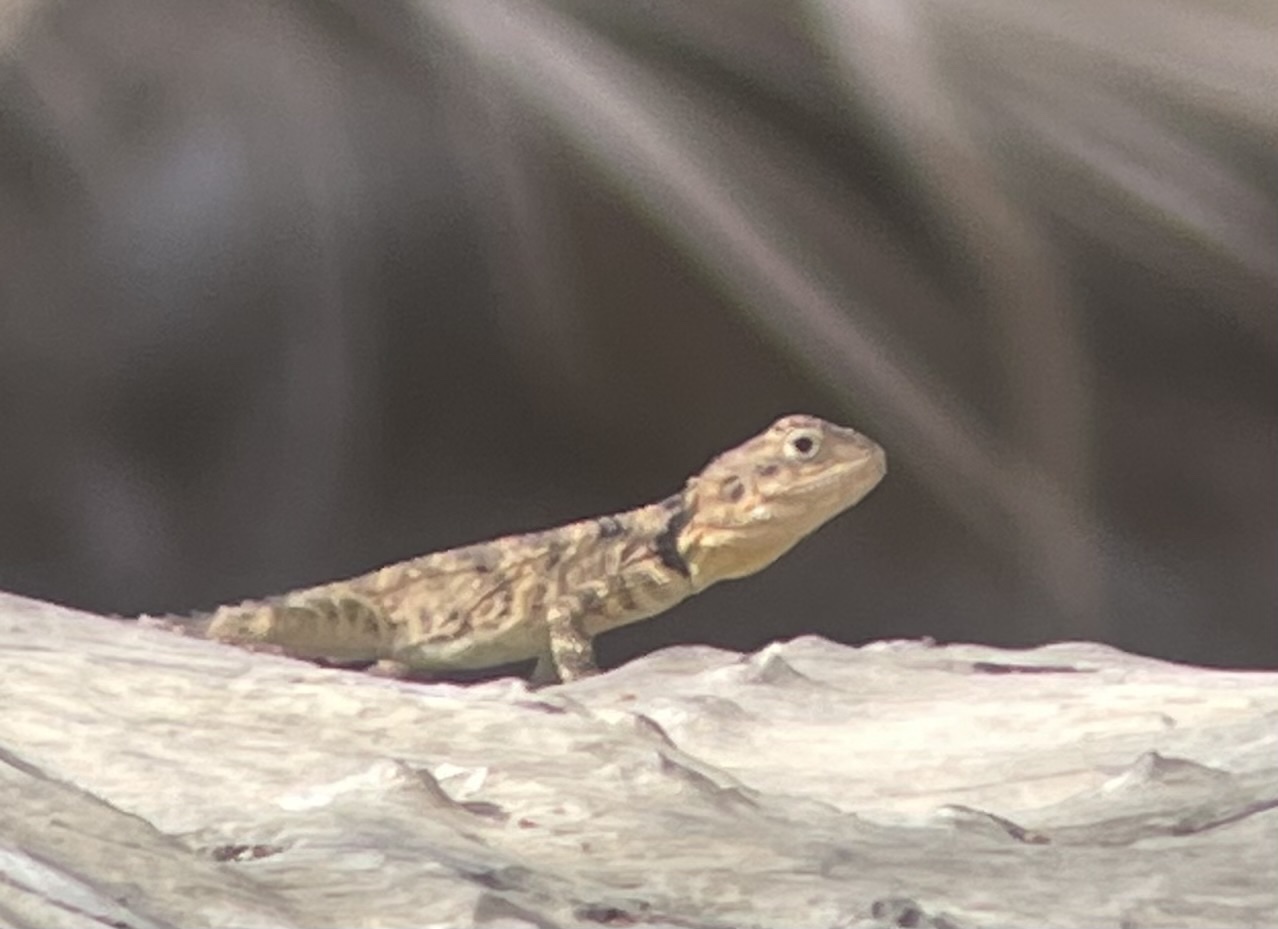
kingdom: Animalia
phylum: Chordata
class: Squamata
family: Agamidae
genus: Laudakia
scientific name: Laudakia vulgaris
